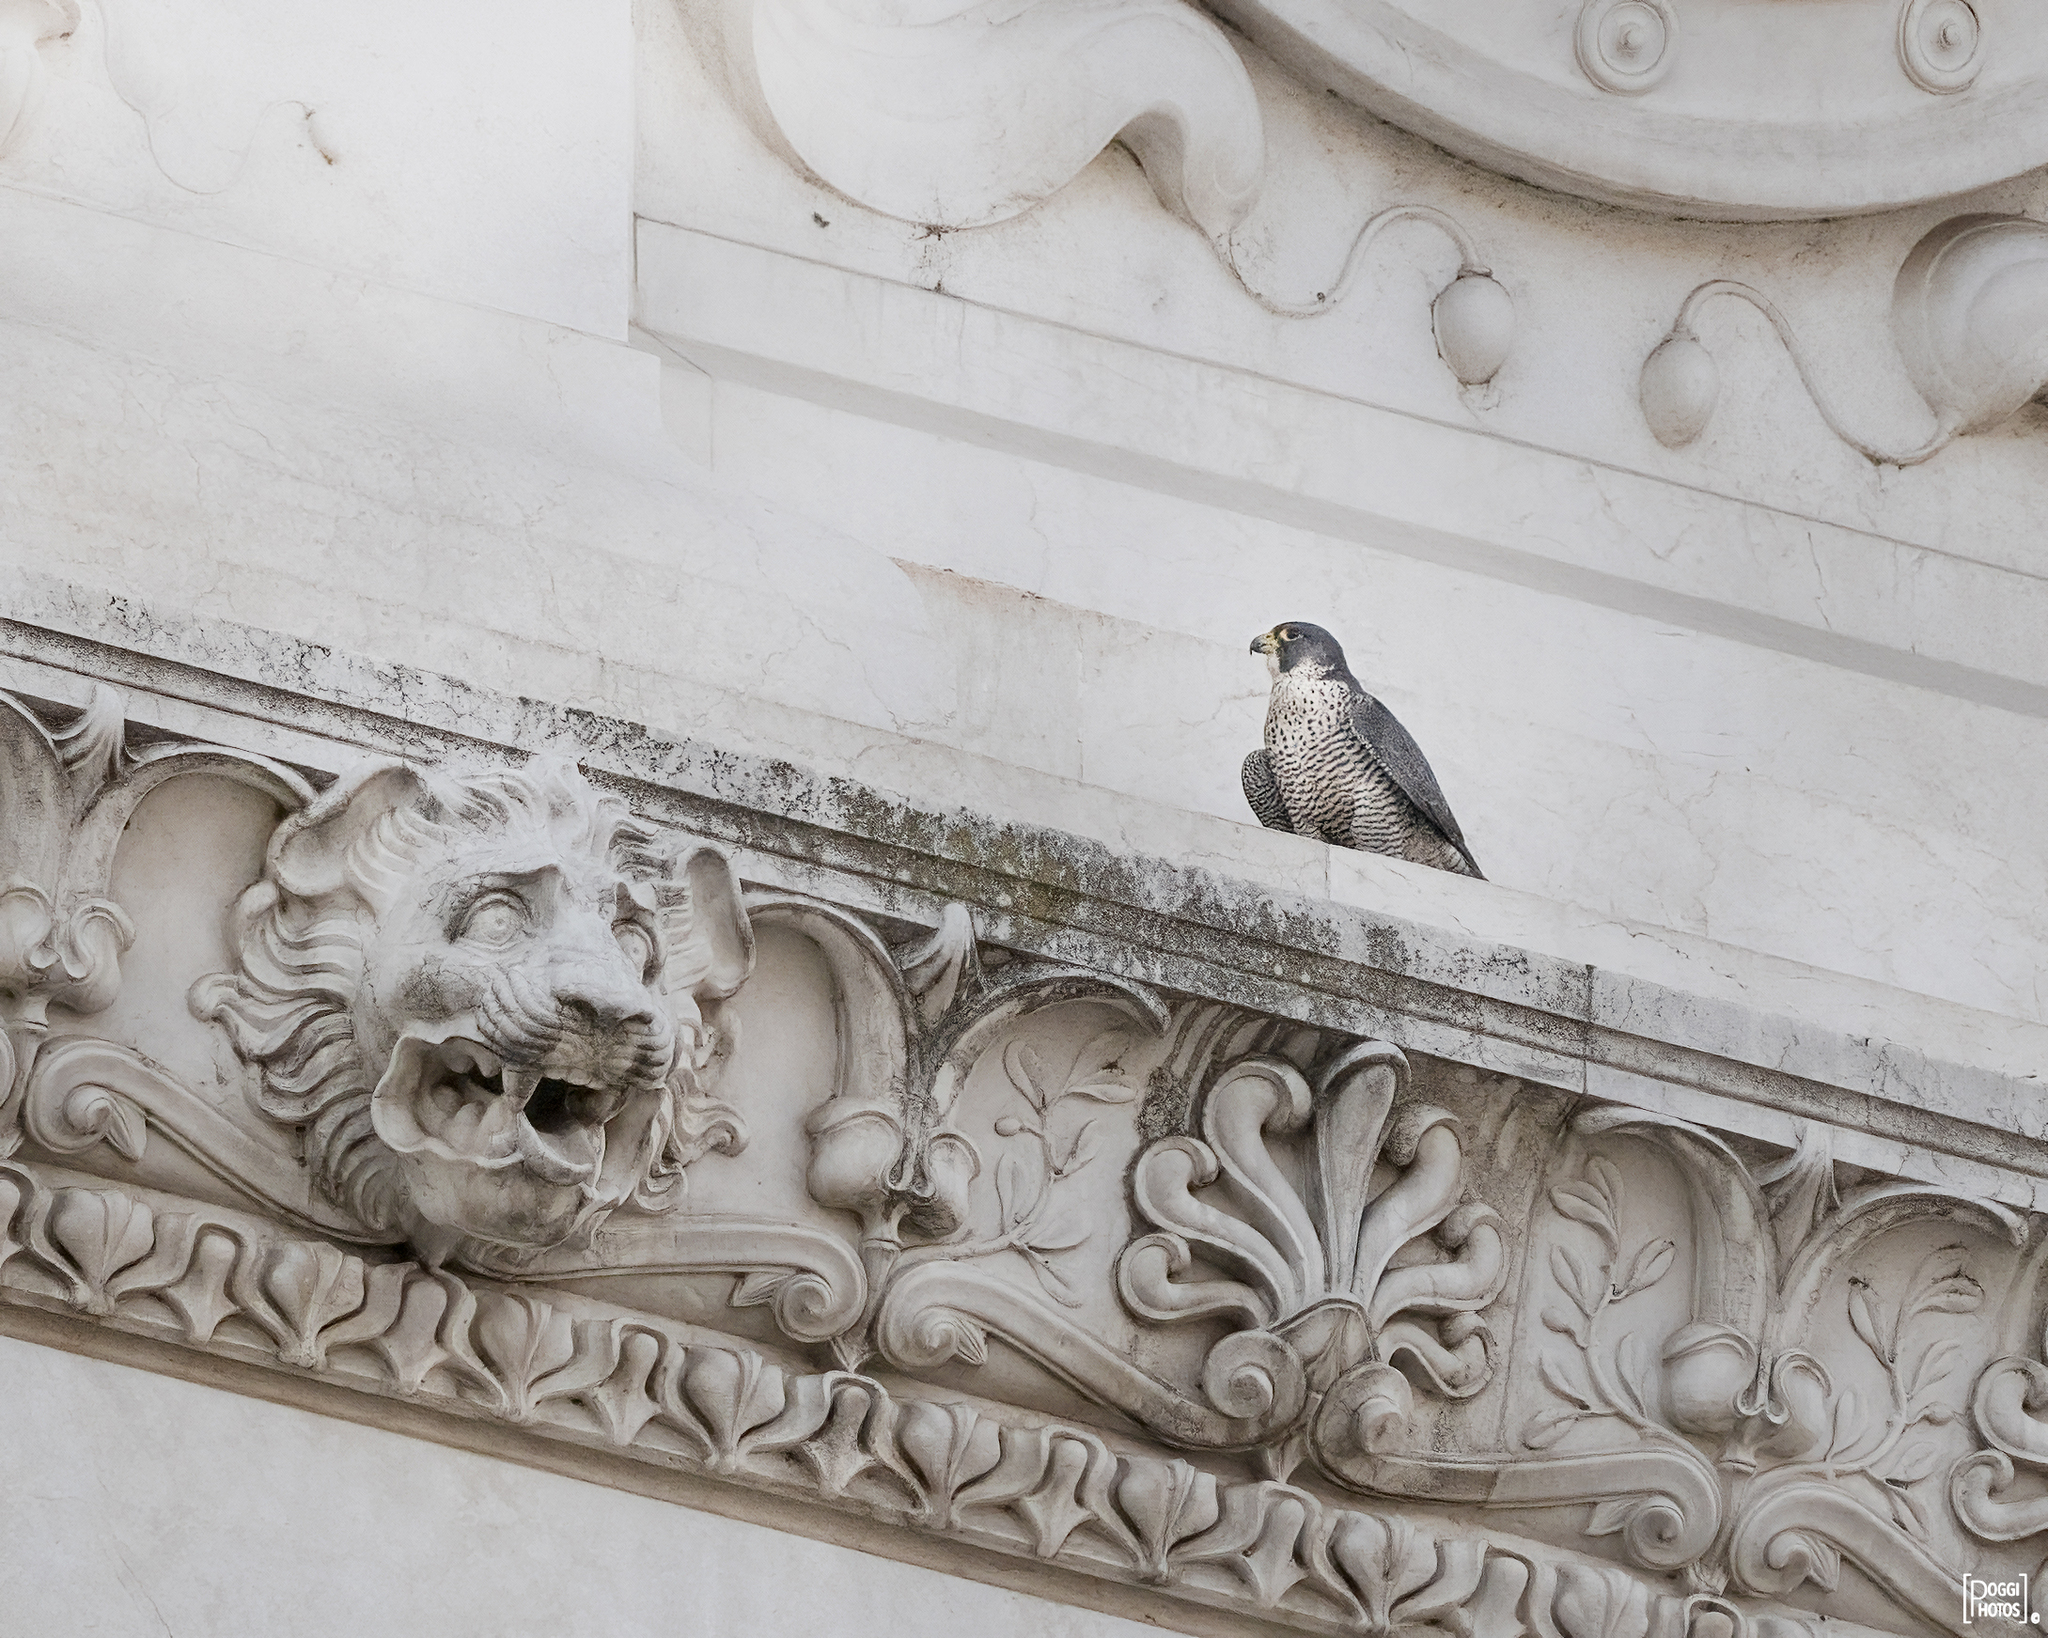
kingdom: Animalia
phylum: Chordata
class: Aves
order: Falconiformes
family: Falconidae
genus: Falco
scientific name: Falco peregrinus
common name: Peregrine falcon
